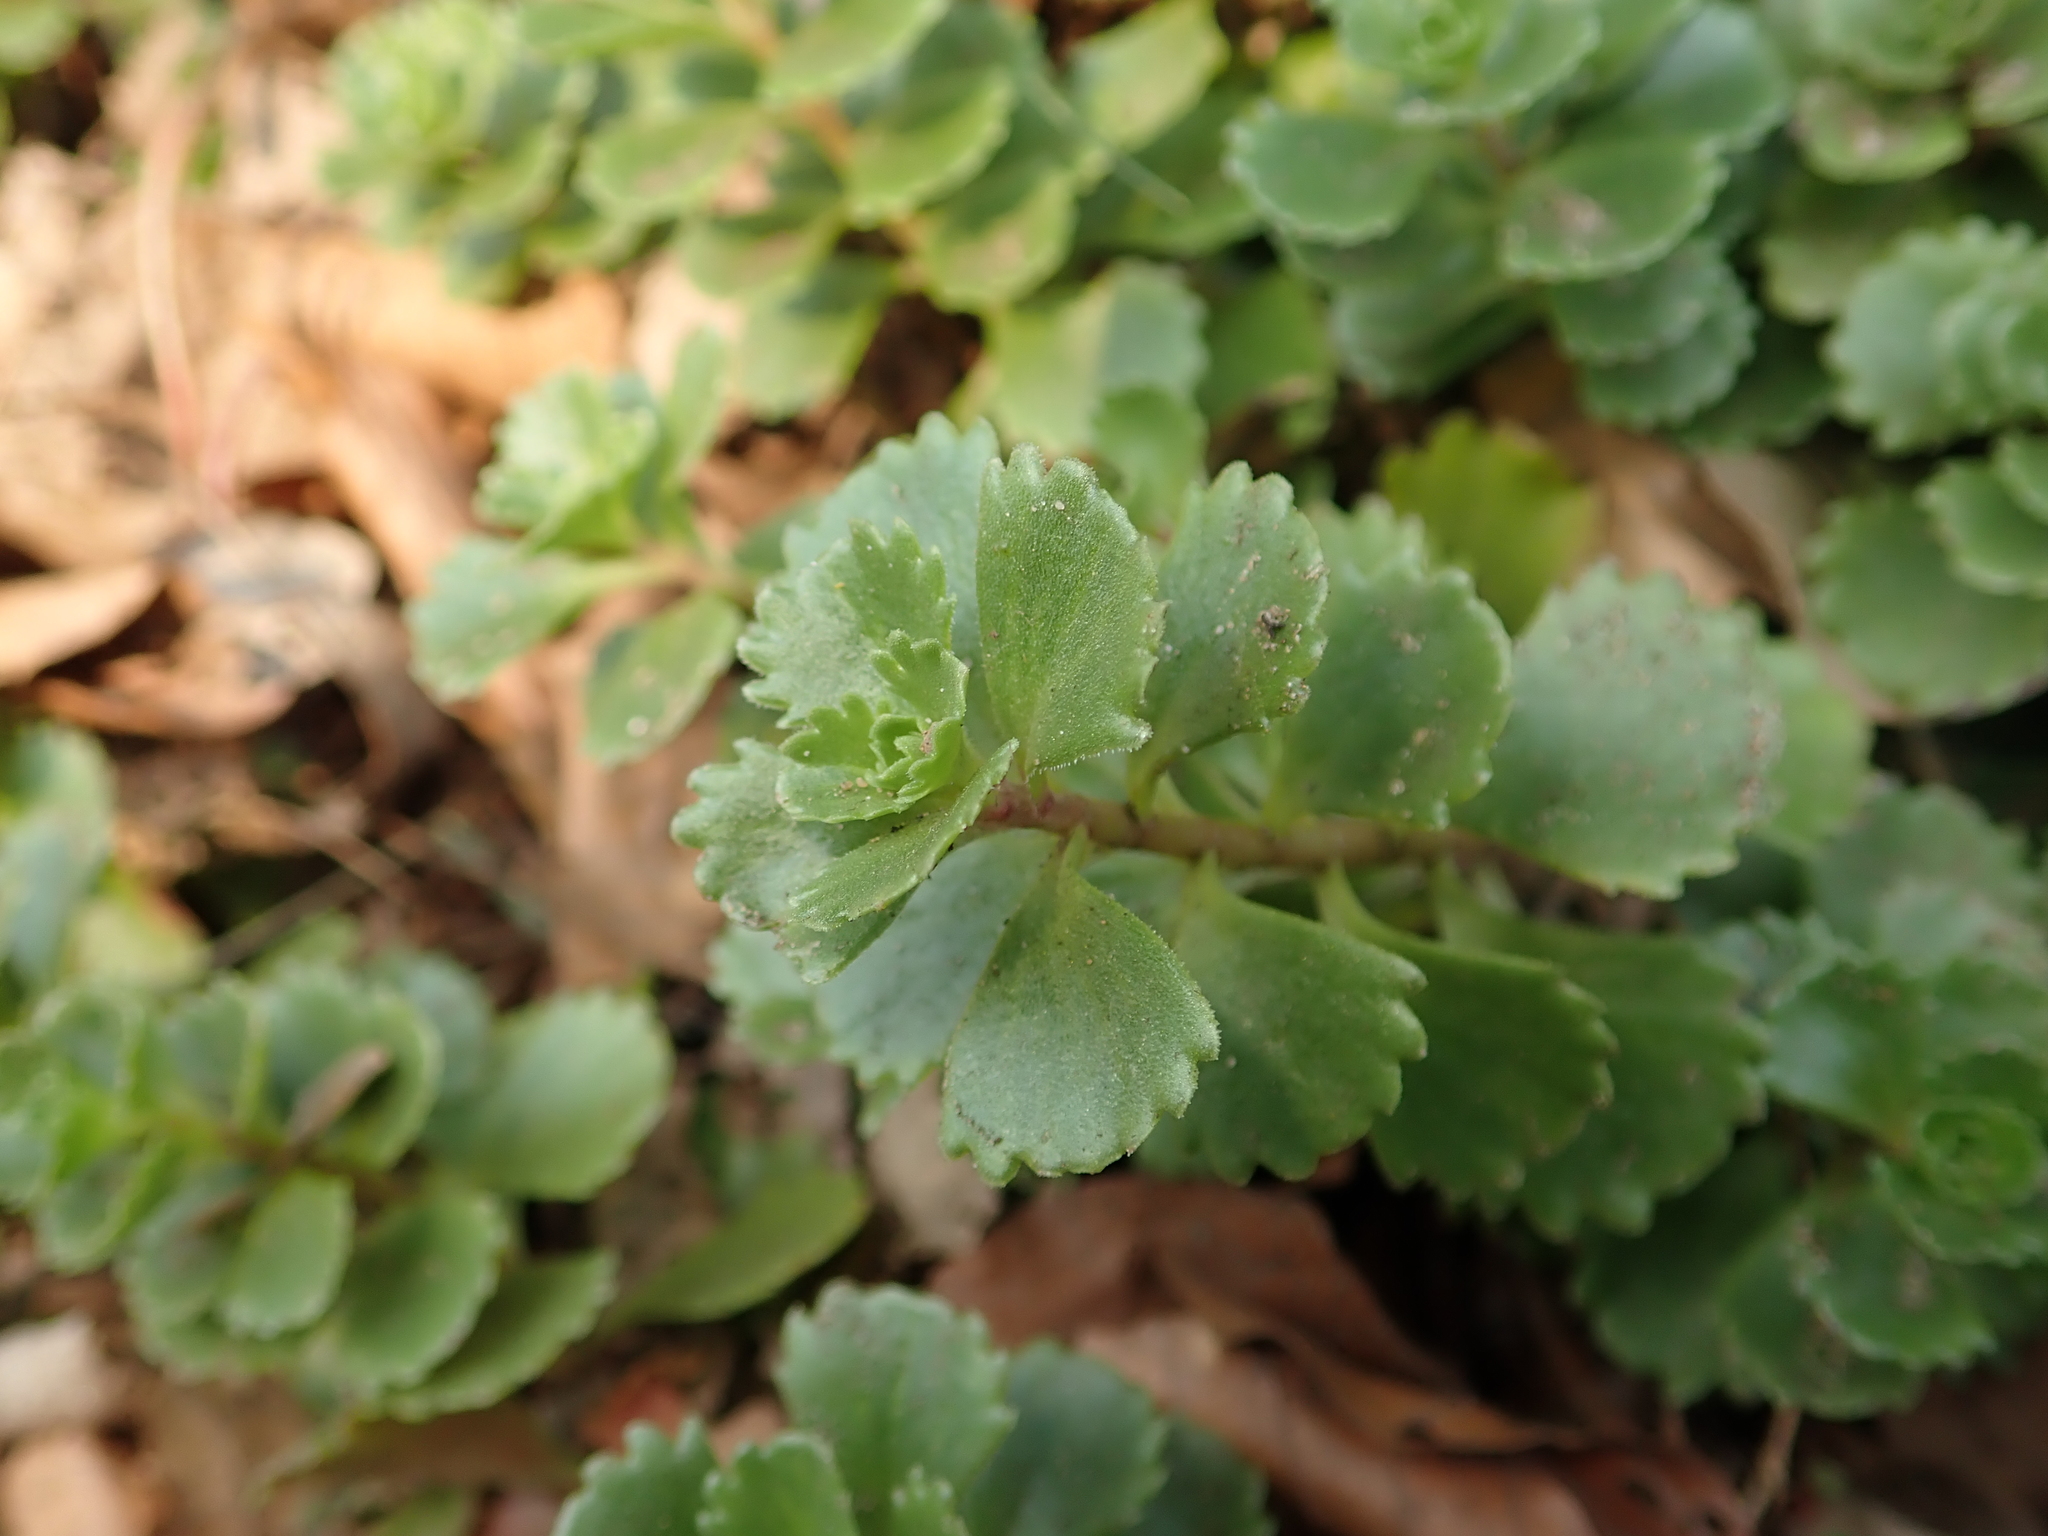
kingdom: Plantae
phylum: Tracheophyta
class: Magnoliopsida
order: Saxifragales
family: Crassulaceae
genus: Phedimus
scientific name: Phedimus spurius
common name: Caucasian stonecrop
